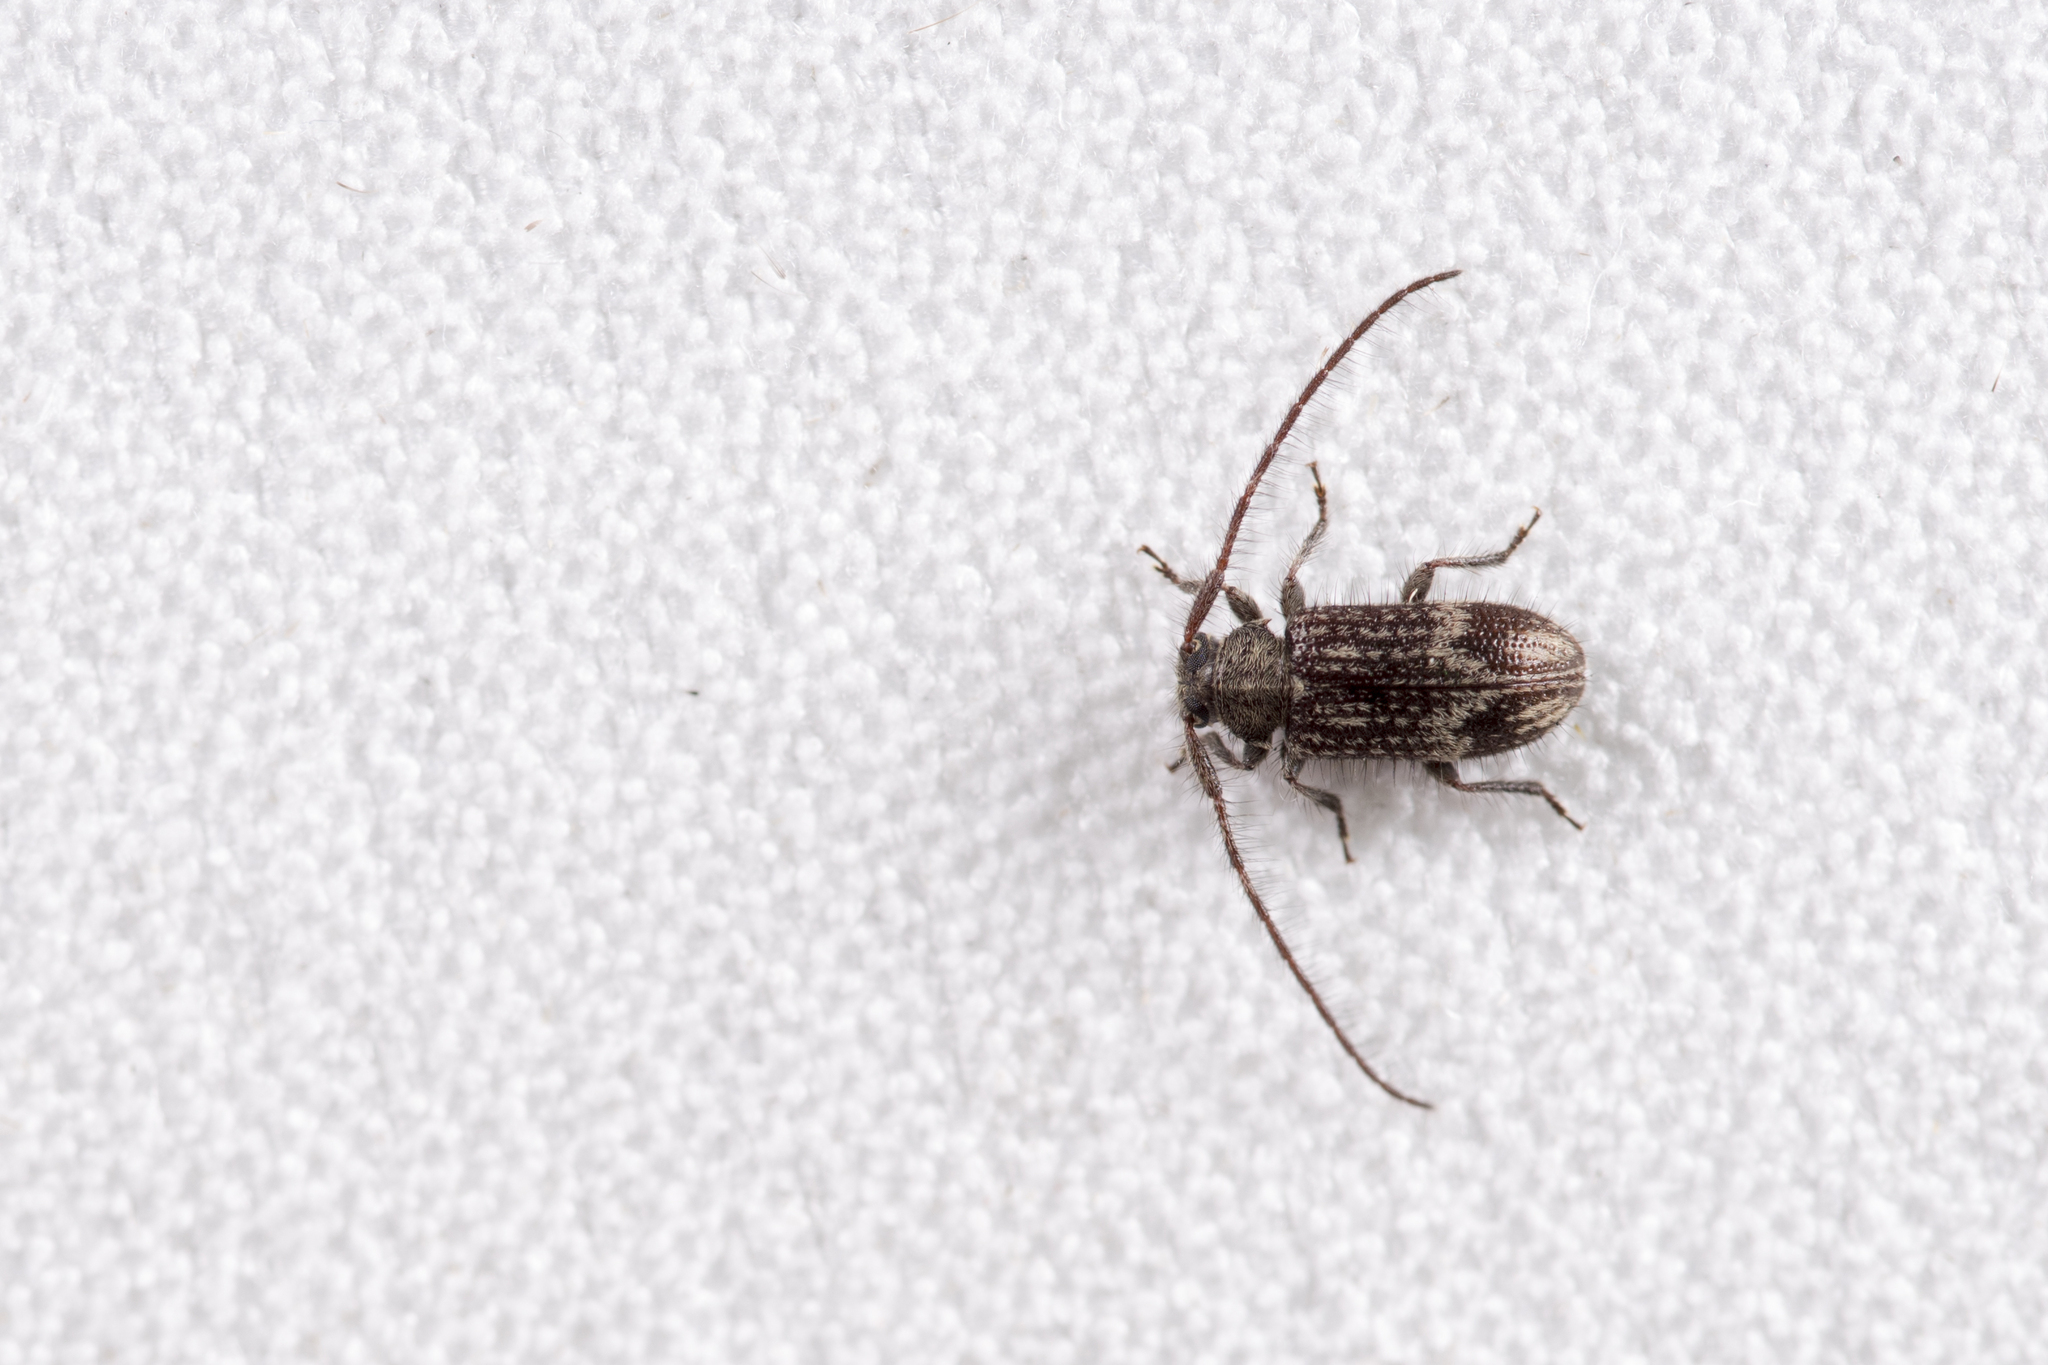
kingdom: Animalia
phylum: Arthropoda
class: Insecta
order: Coleoptera
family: Cerambycidae
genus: Exocentrus
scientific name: Exocentrus seriatomaculatus
